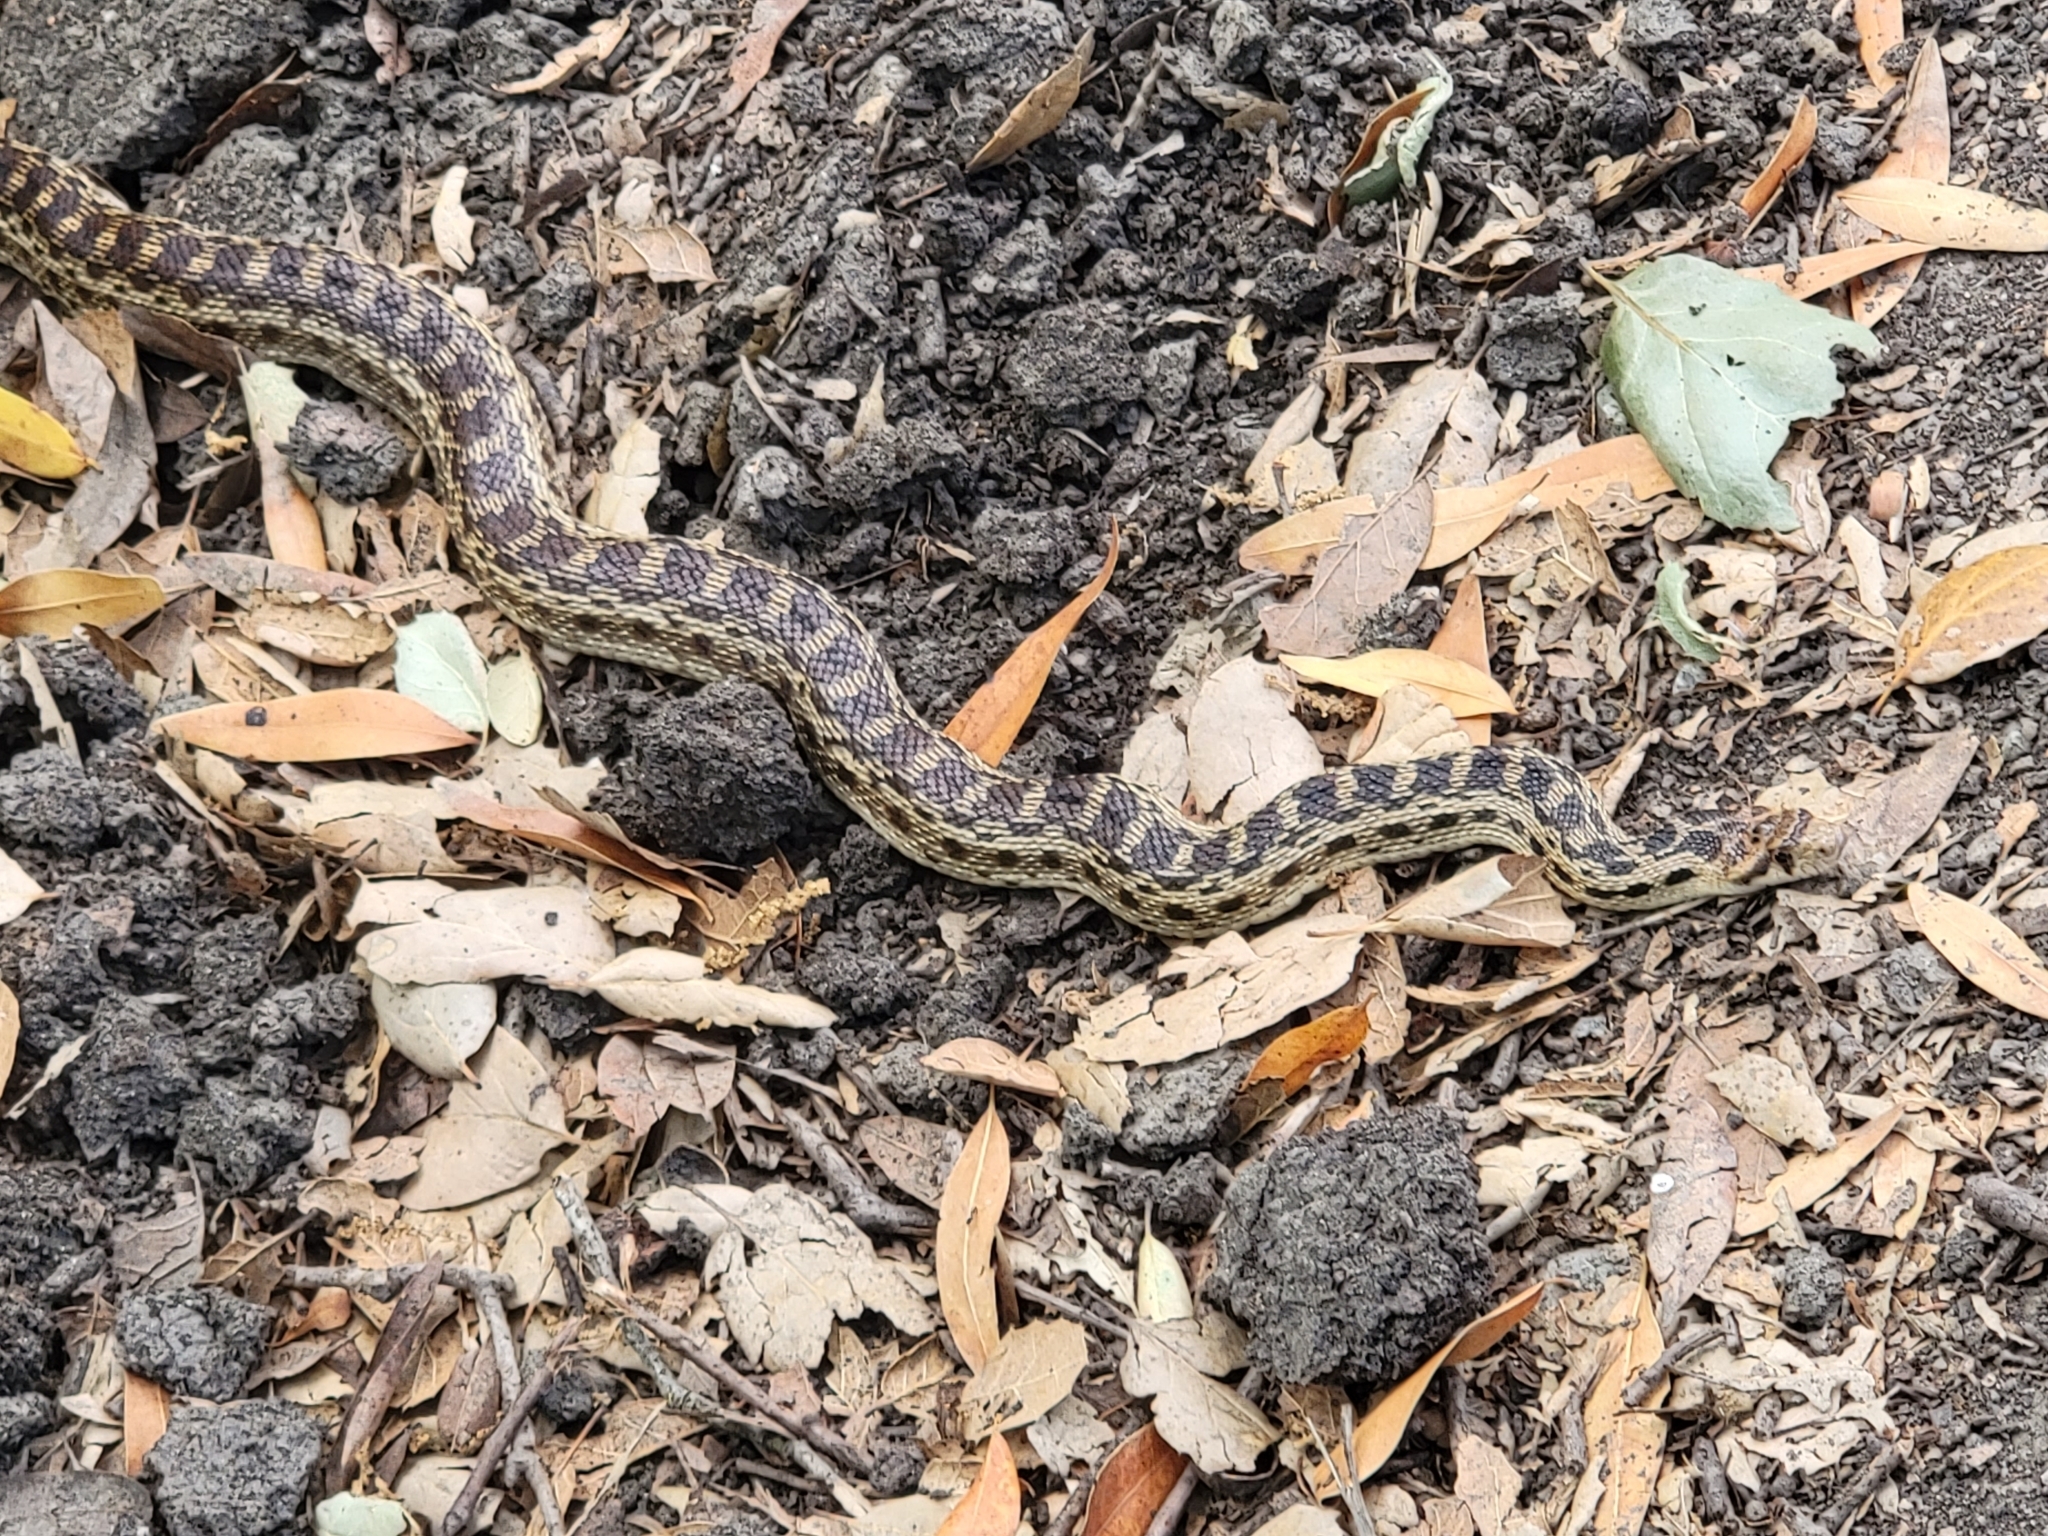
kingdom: Animalia
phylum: Chordata
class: Squamata
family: Colubridae
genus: Pituophis
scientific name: Pituophis catenifer
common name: Gopher snake
